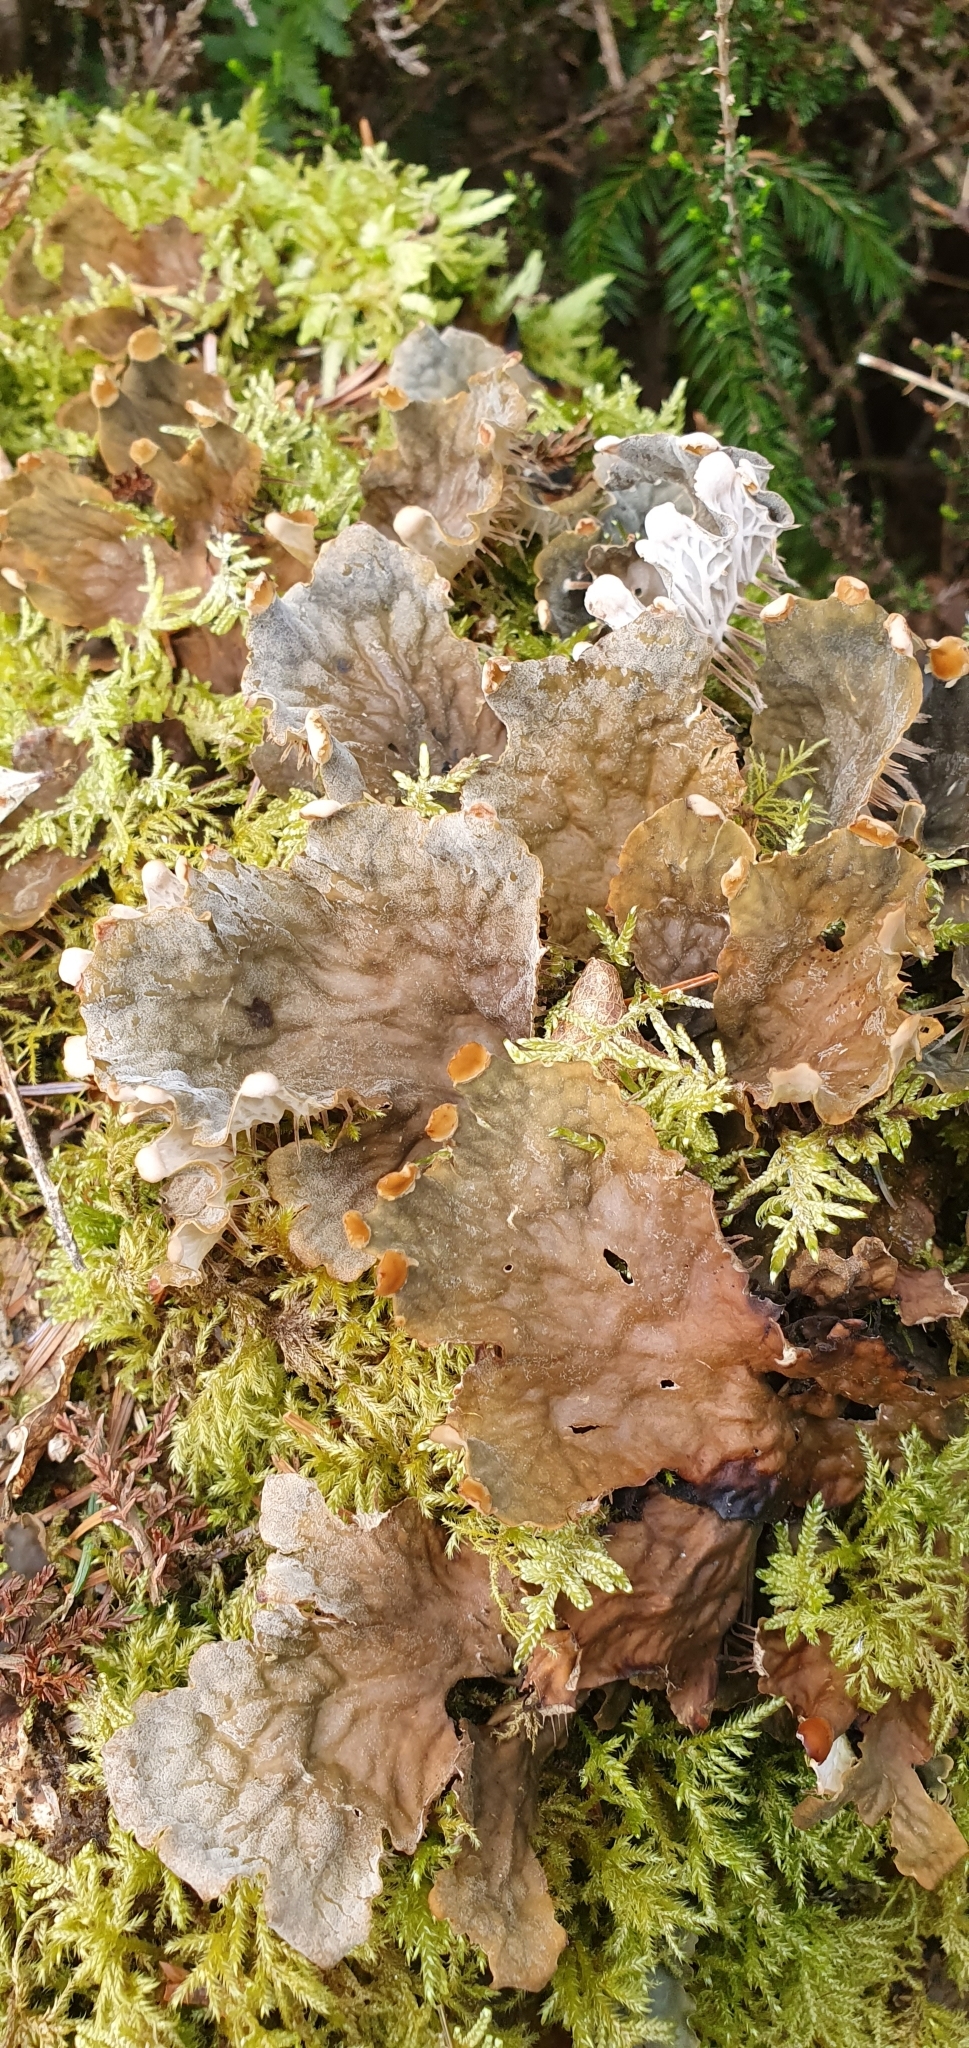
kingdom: Fungi
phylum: Ascomycota
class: Lecanoromycetes
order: Peltigerales
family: Peltigeraceae
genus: Peltigera
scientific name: Peltigera membranacea
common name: Membranous pelt lichen
